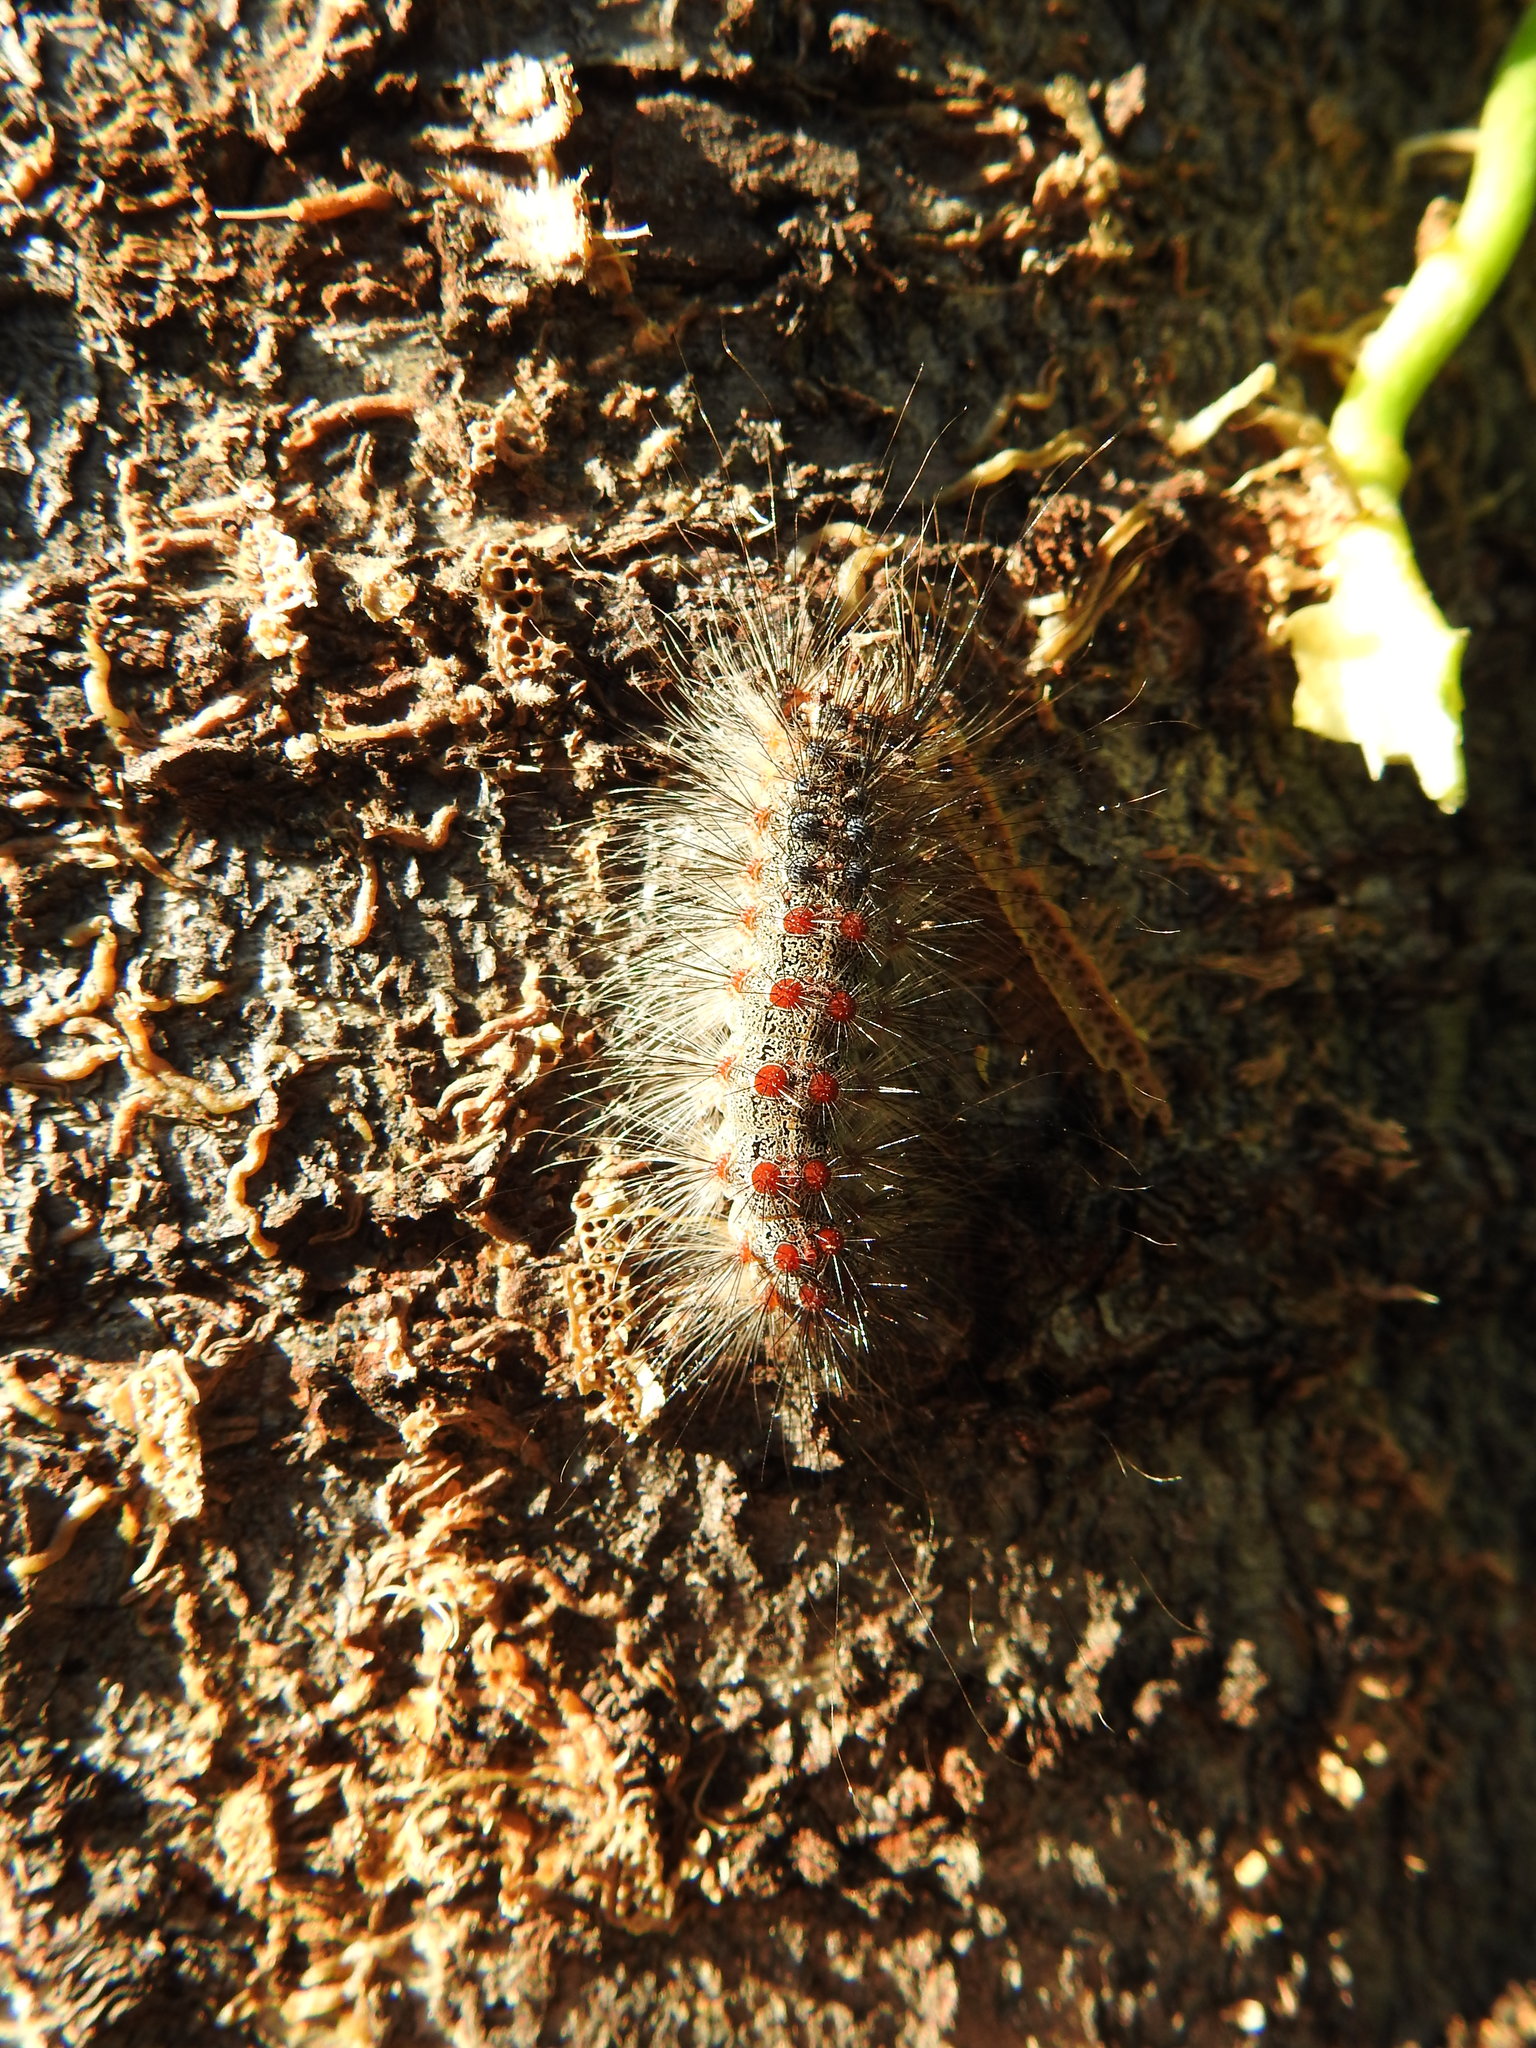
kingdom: Animalia
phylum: Arthropoda
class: Insecta
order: Lepidoptera
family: Erebidae
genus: Lymantria
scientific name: Lymantria dispar
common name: Gypsy moth
